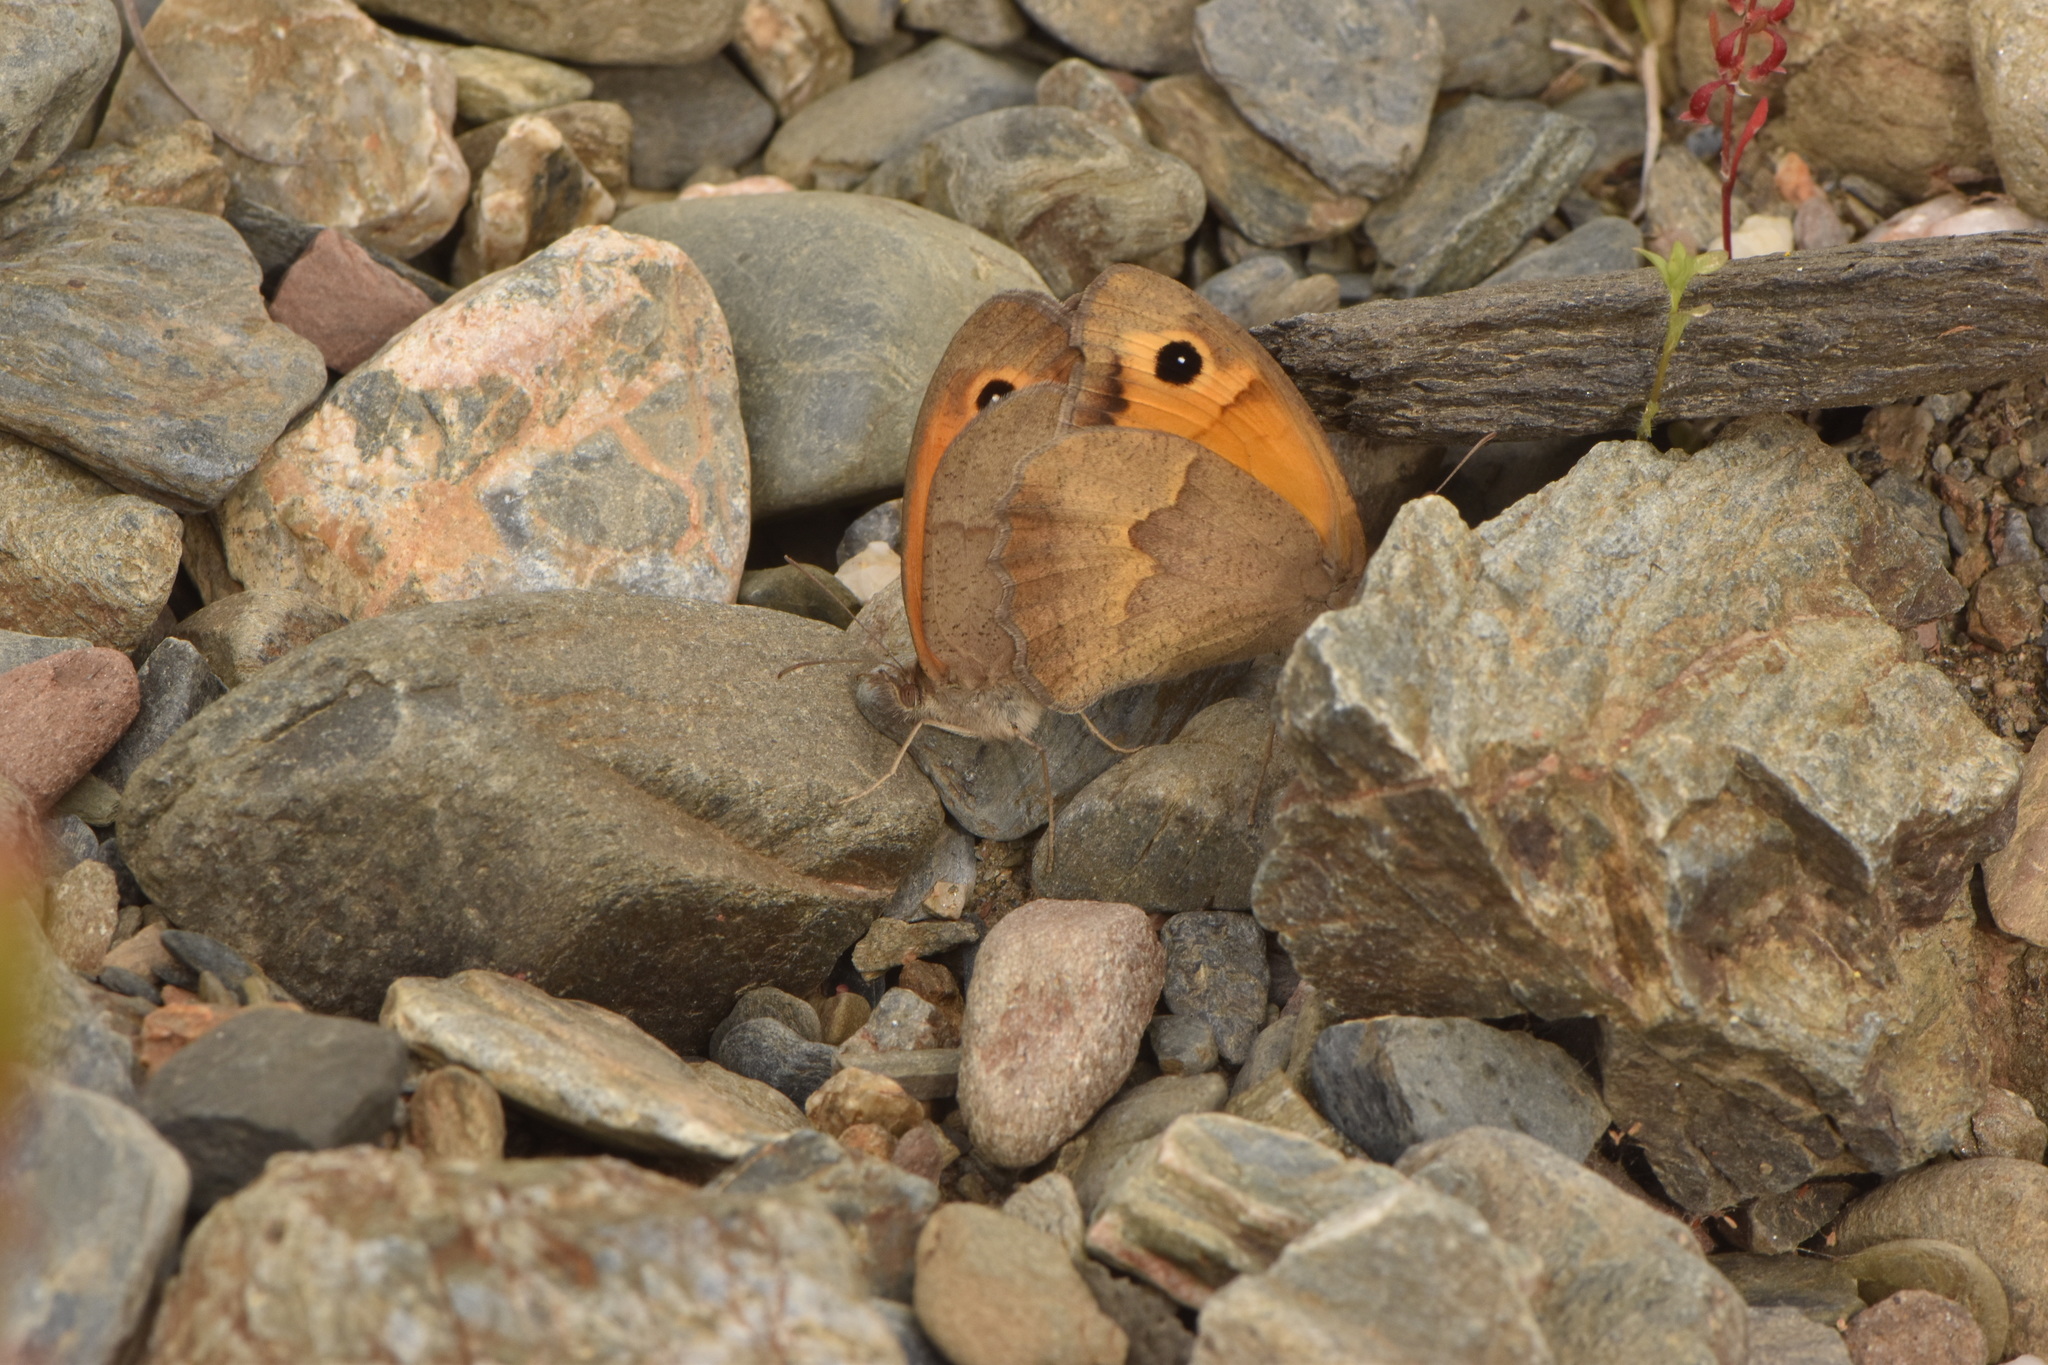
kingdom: Animalia
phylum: Arthropoda
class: Insecta
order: Lepidoptera
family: Nymphalidae
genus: Maniola
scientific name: Maniola jurtina
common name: Meadow brown
